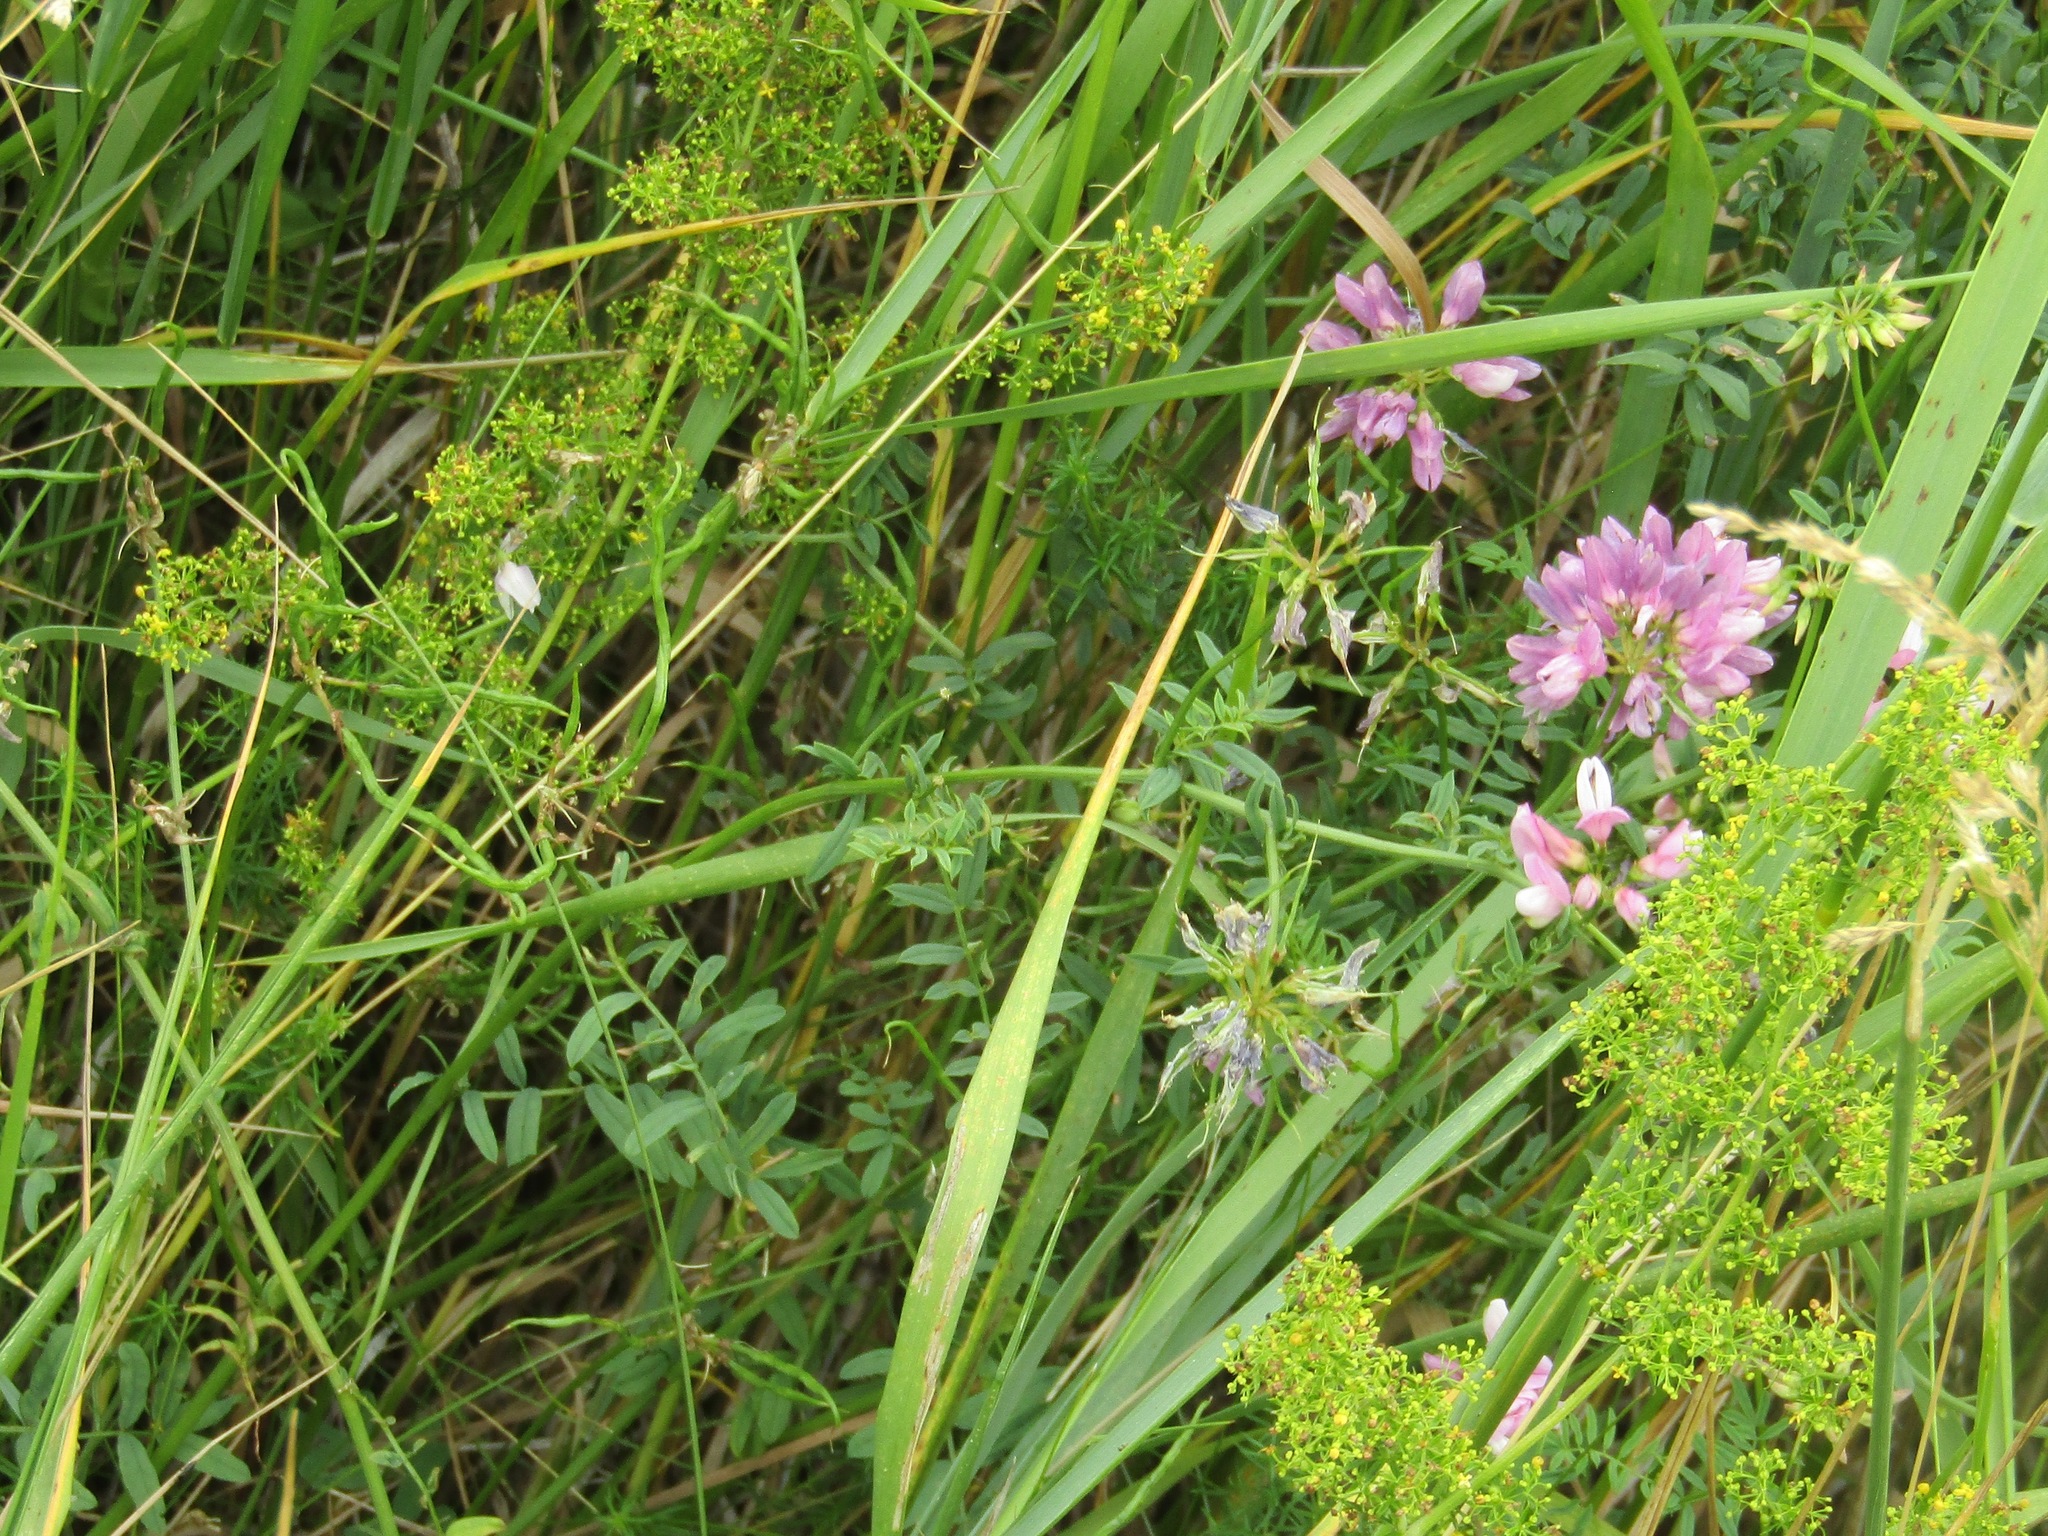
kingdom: Plantae
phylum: Tracheophyta
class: Magnoliopsida
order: Fabales
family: Fabaceae
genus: Coronilla
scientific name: Coronilla varia
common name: Crownvetch
